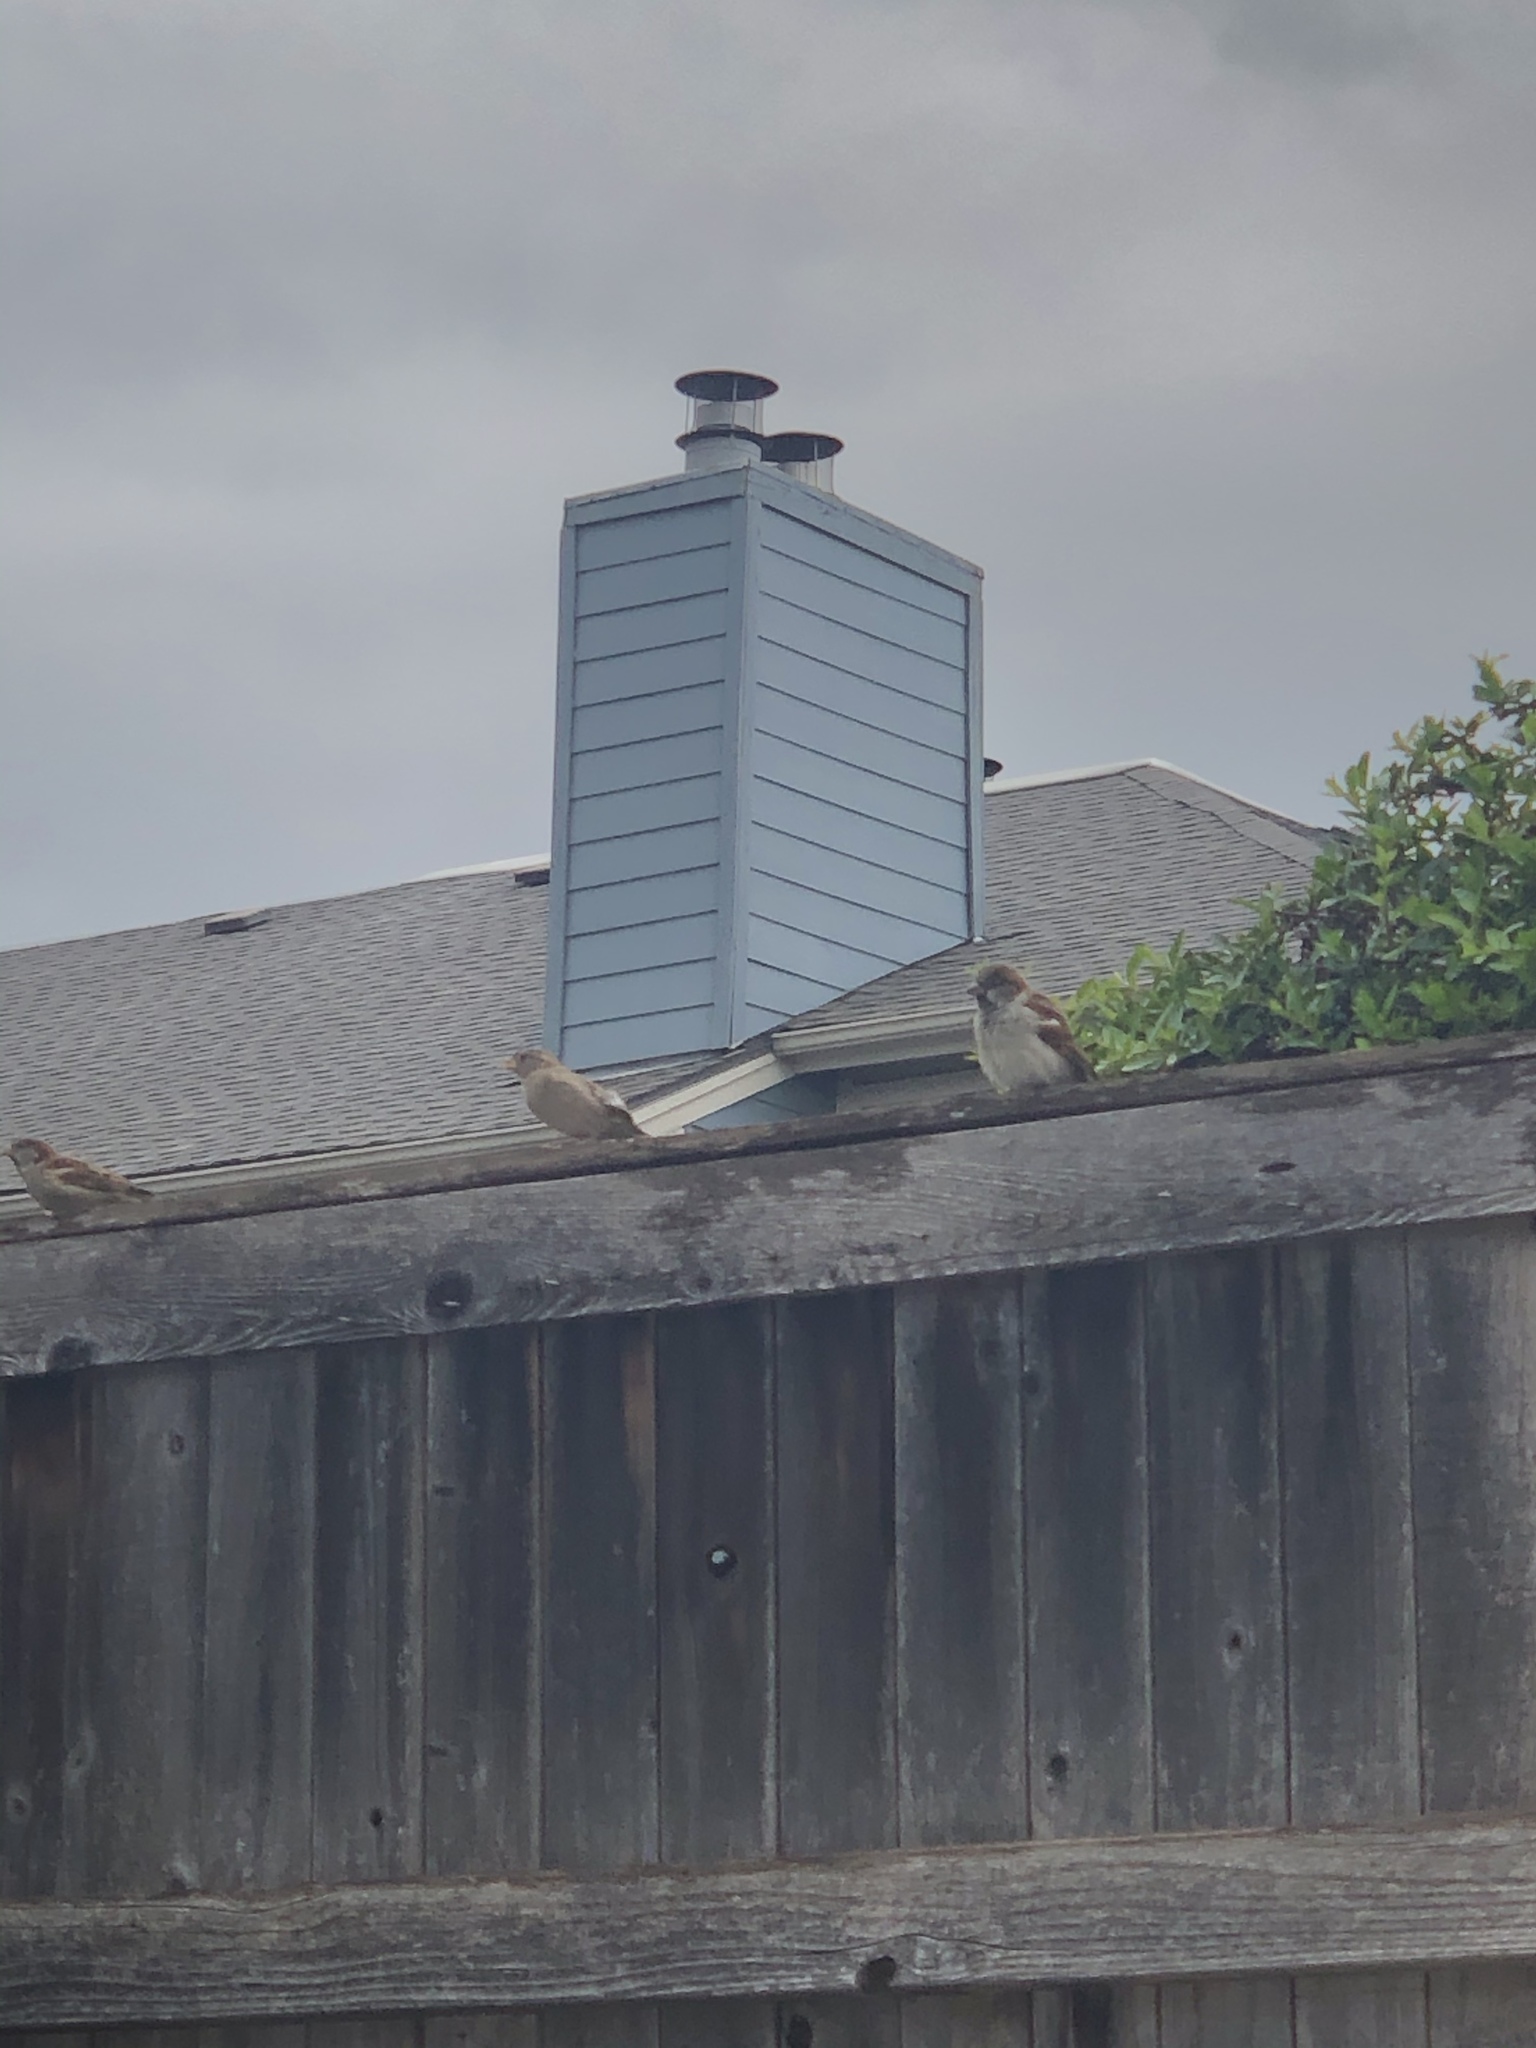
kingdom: Animalia
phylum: Chordata
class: Aves
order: Passeriformes
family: Passeridae
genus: Passer
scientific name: Passer domesticus
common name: House sparrow
